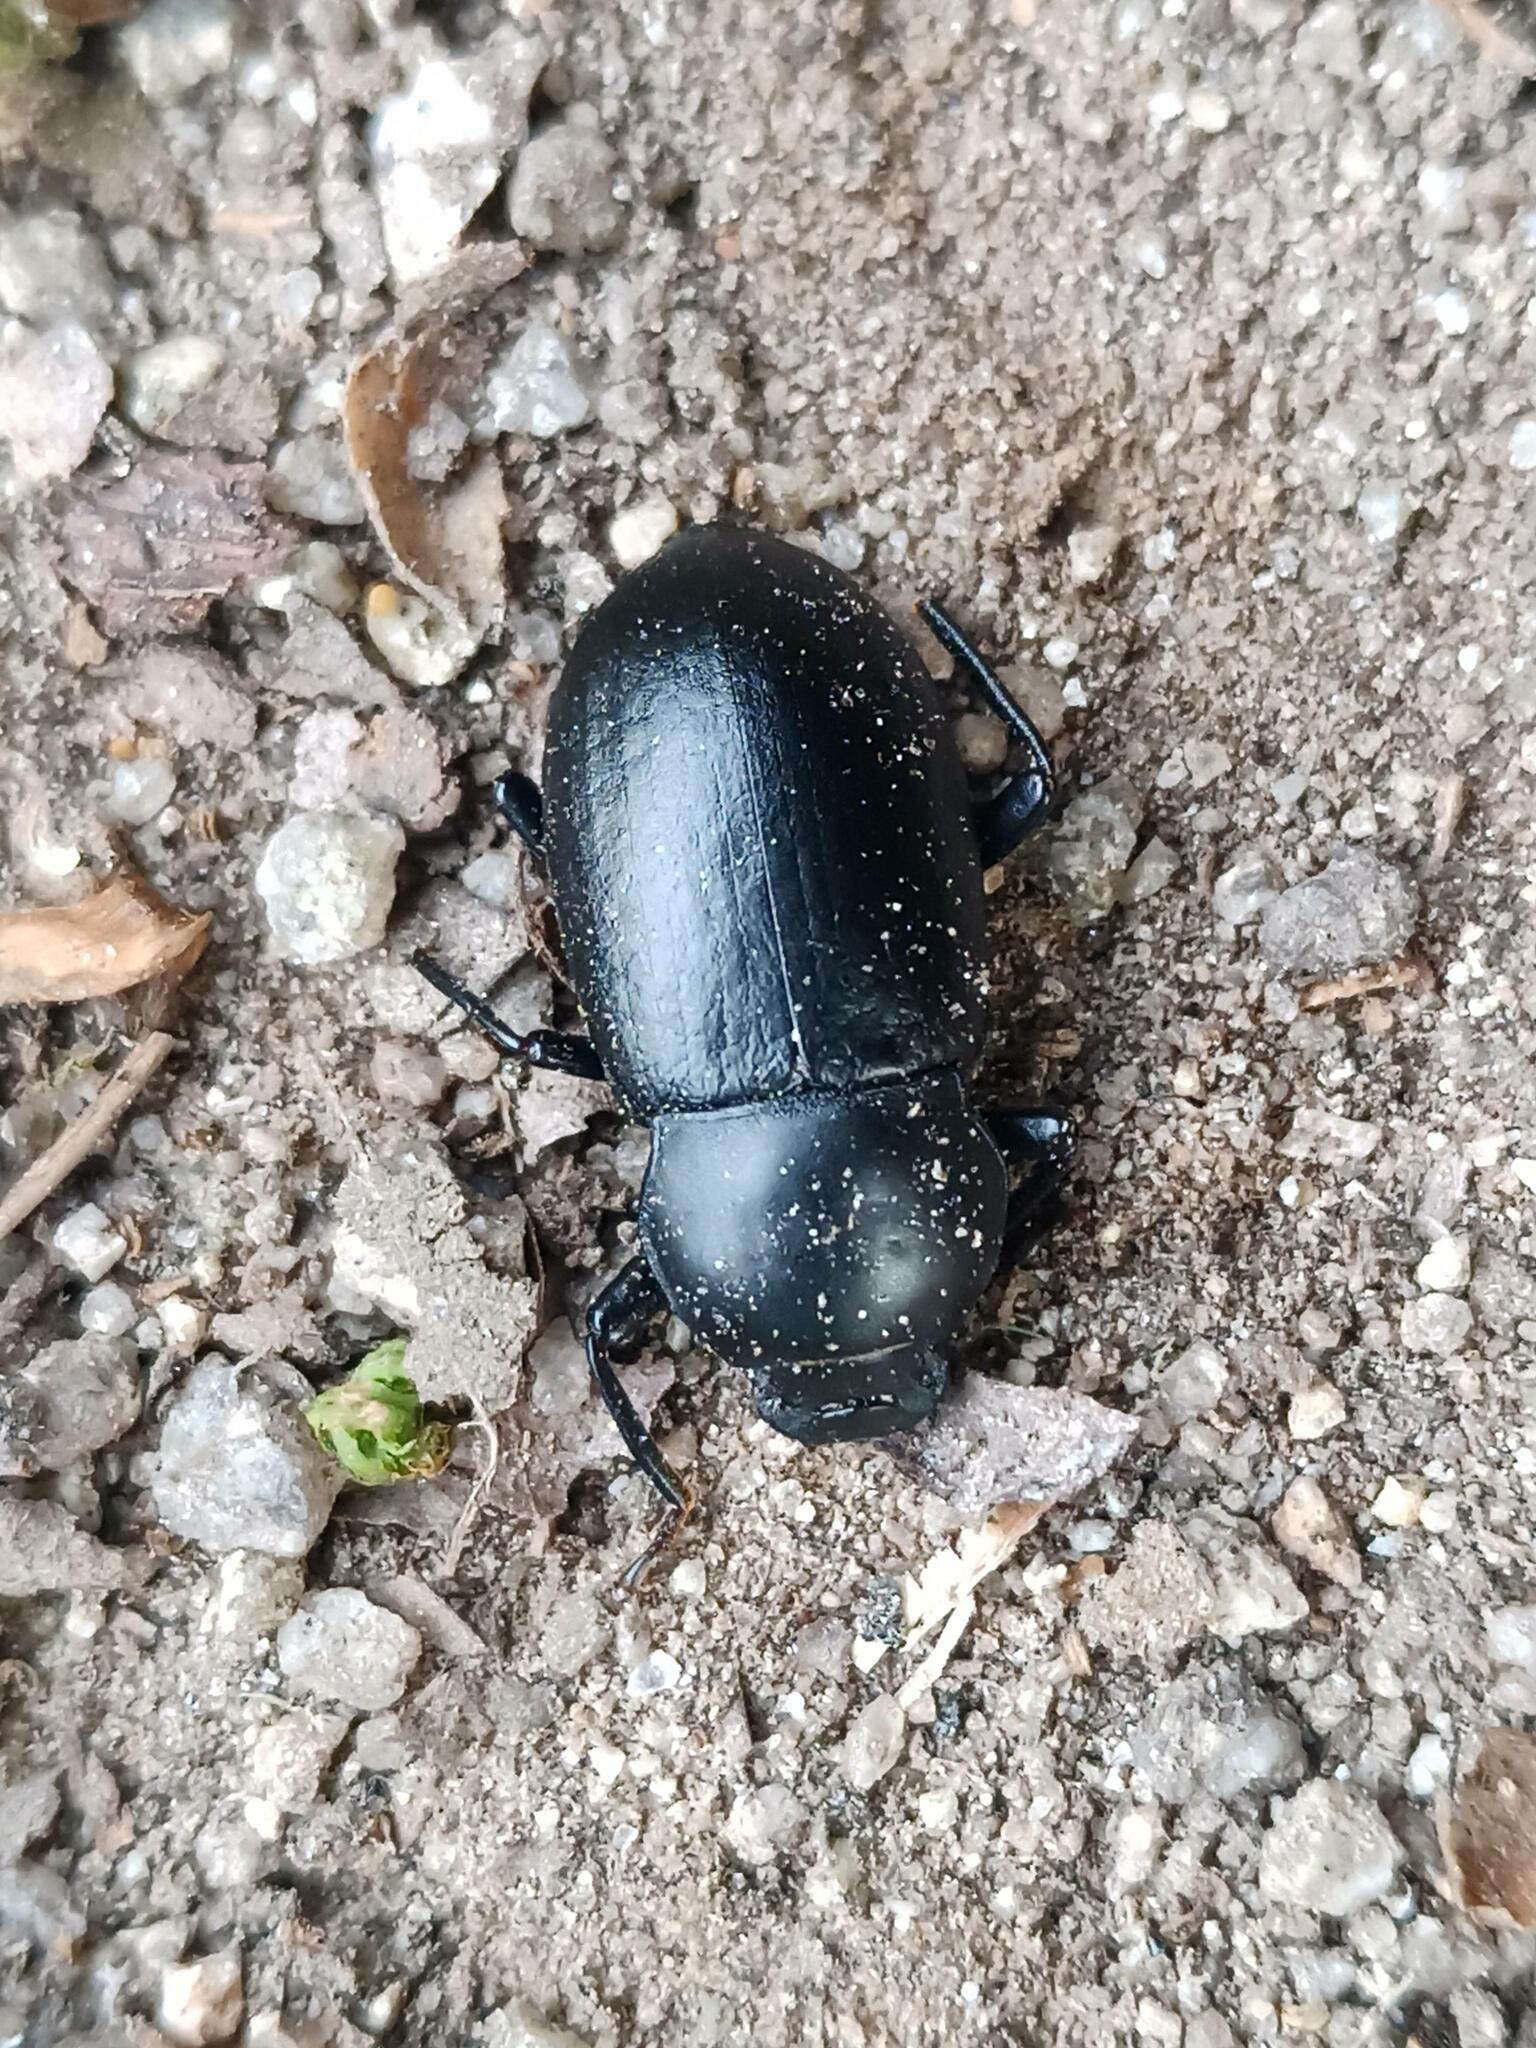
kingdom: Animalia
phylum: Arthropoda
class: Insecta
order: Coleoptera
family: Tenebrionidae
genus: Coelometopus
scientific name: Coelometopus clypeatus
